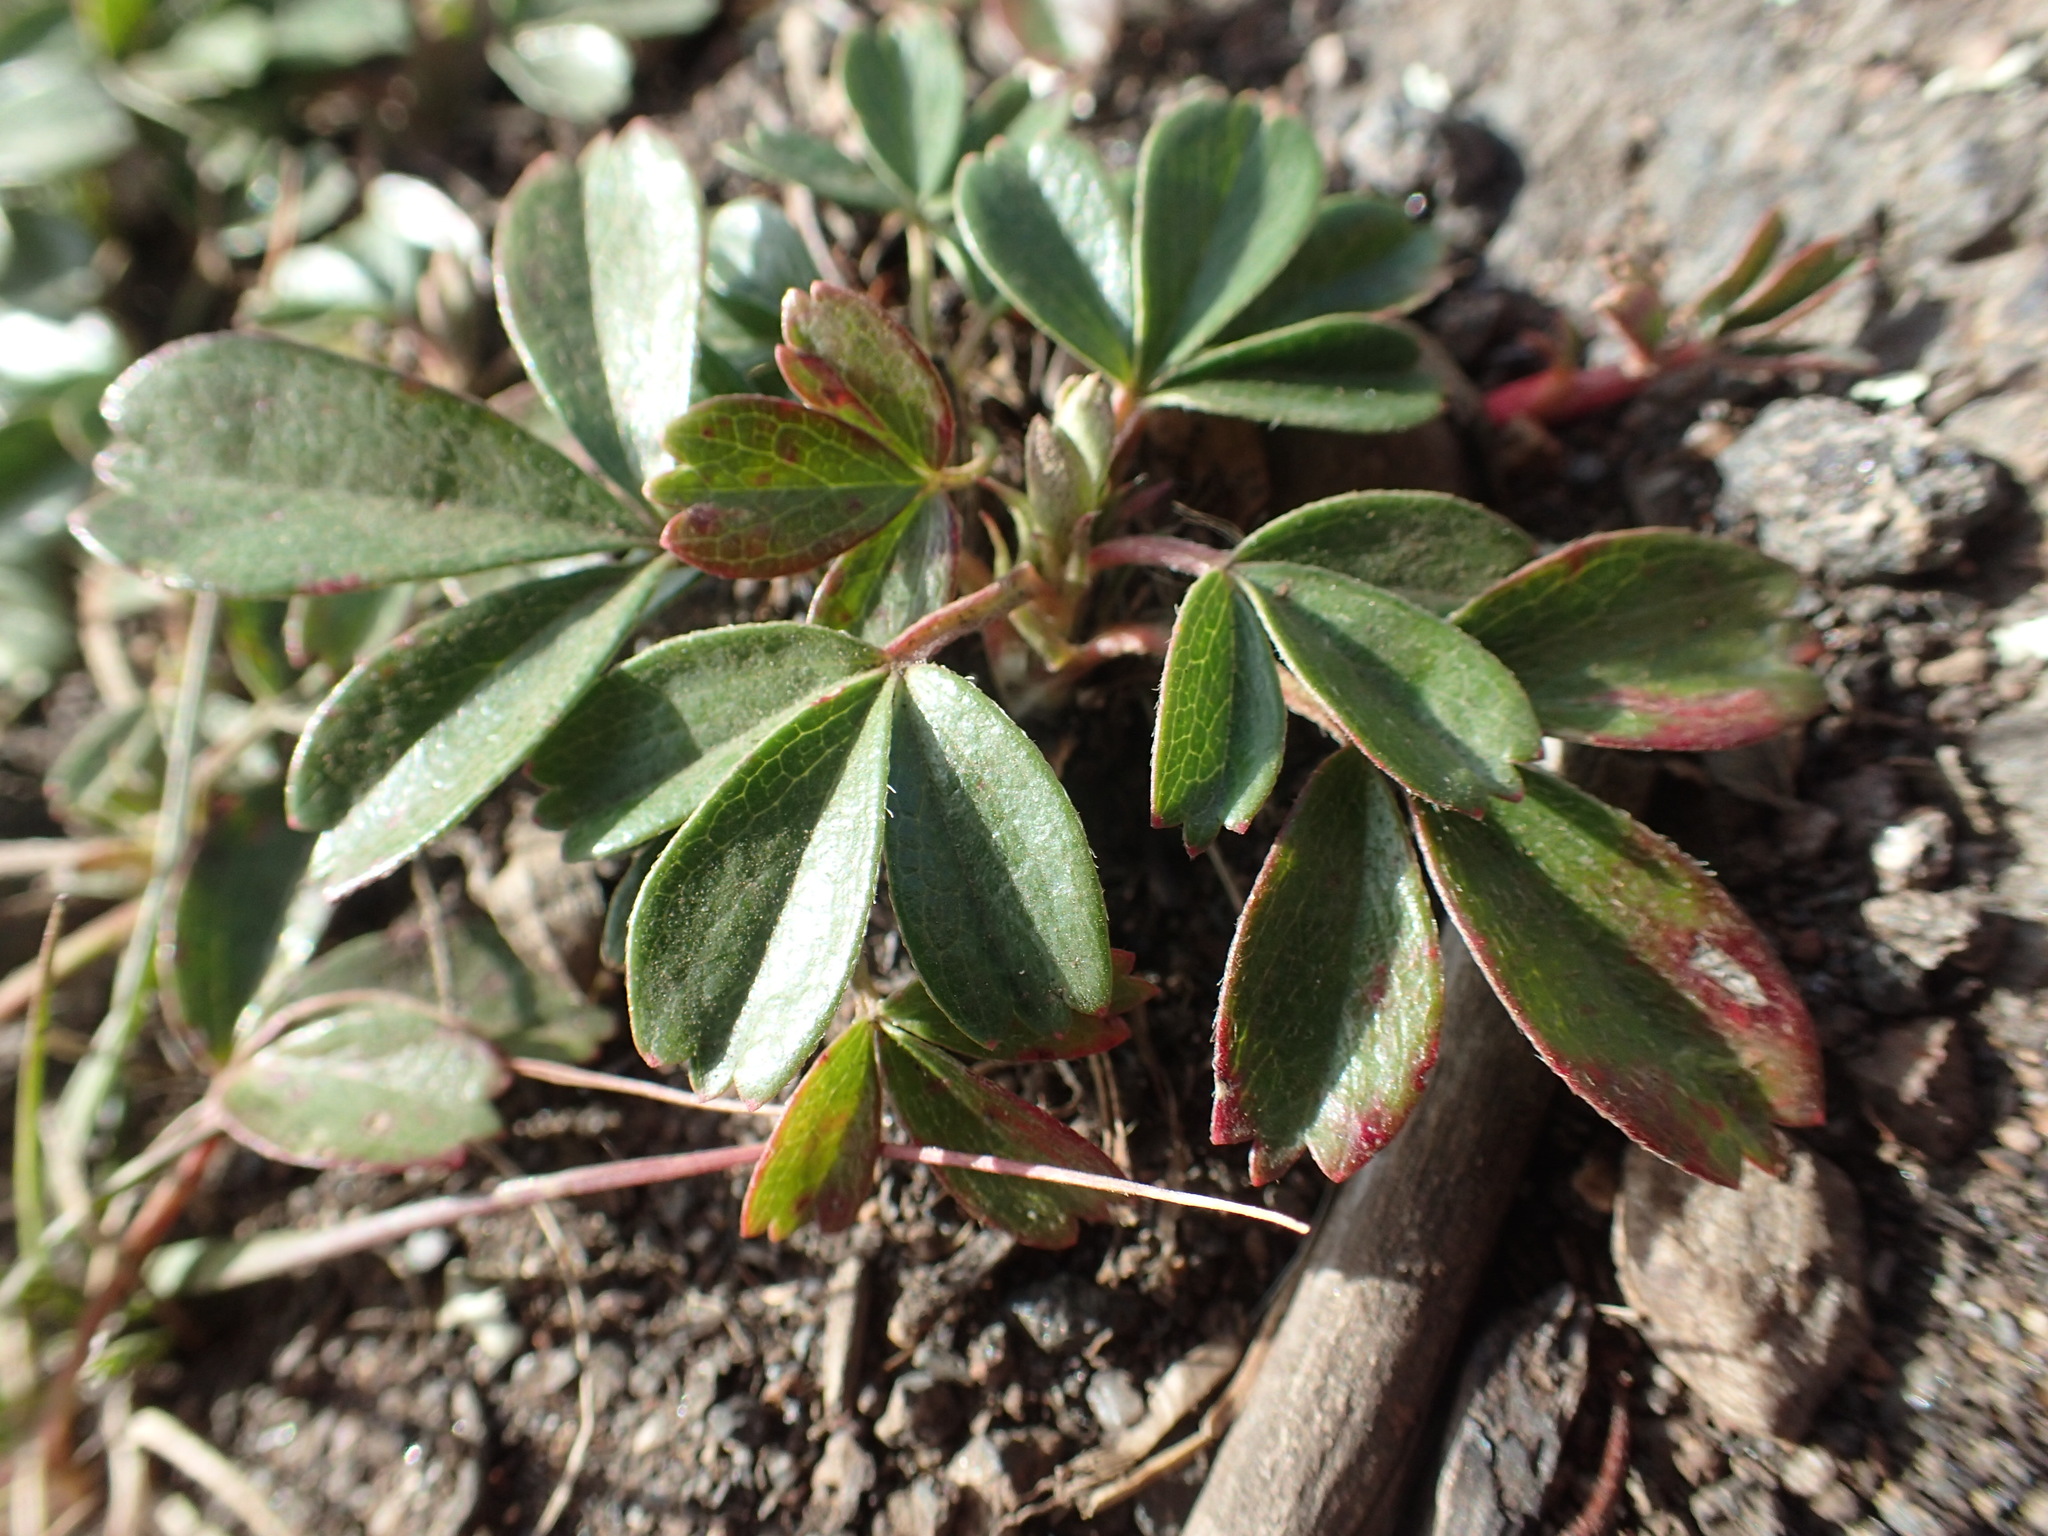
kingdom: Plantae
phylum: Tracheophyta
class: Magnoliopsida
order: Rosales
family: Rosaceae
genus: Sibbaldia
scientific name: Sibbaldia tridentata
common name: Three-toothed cinquefoil
